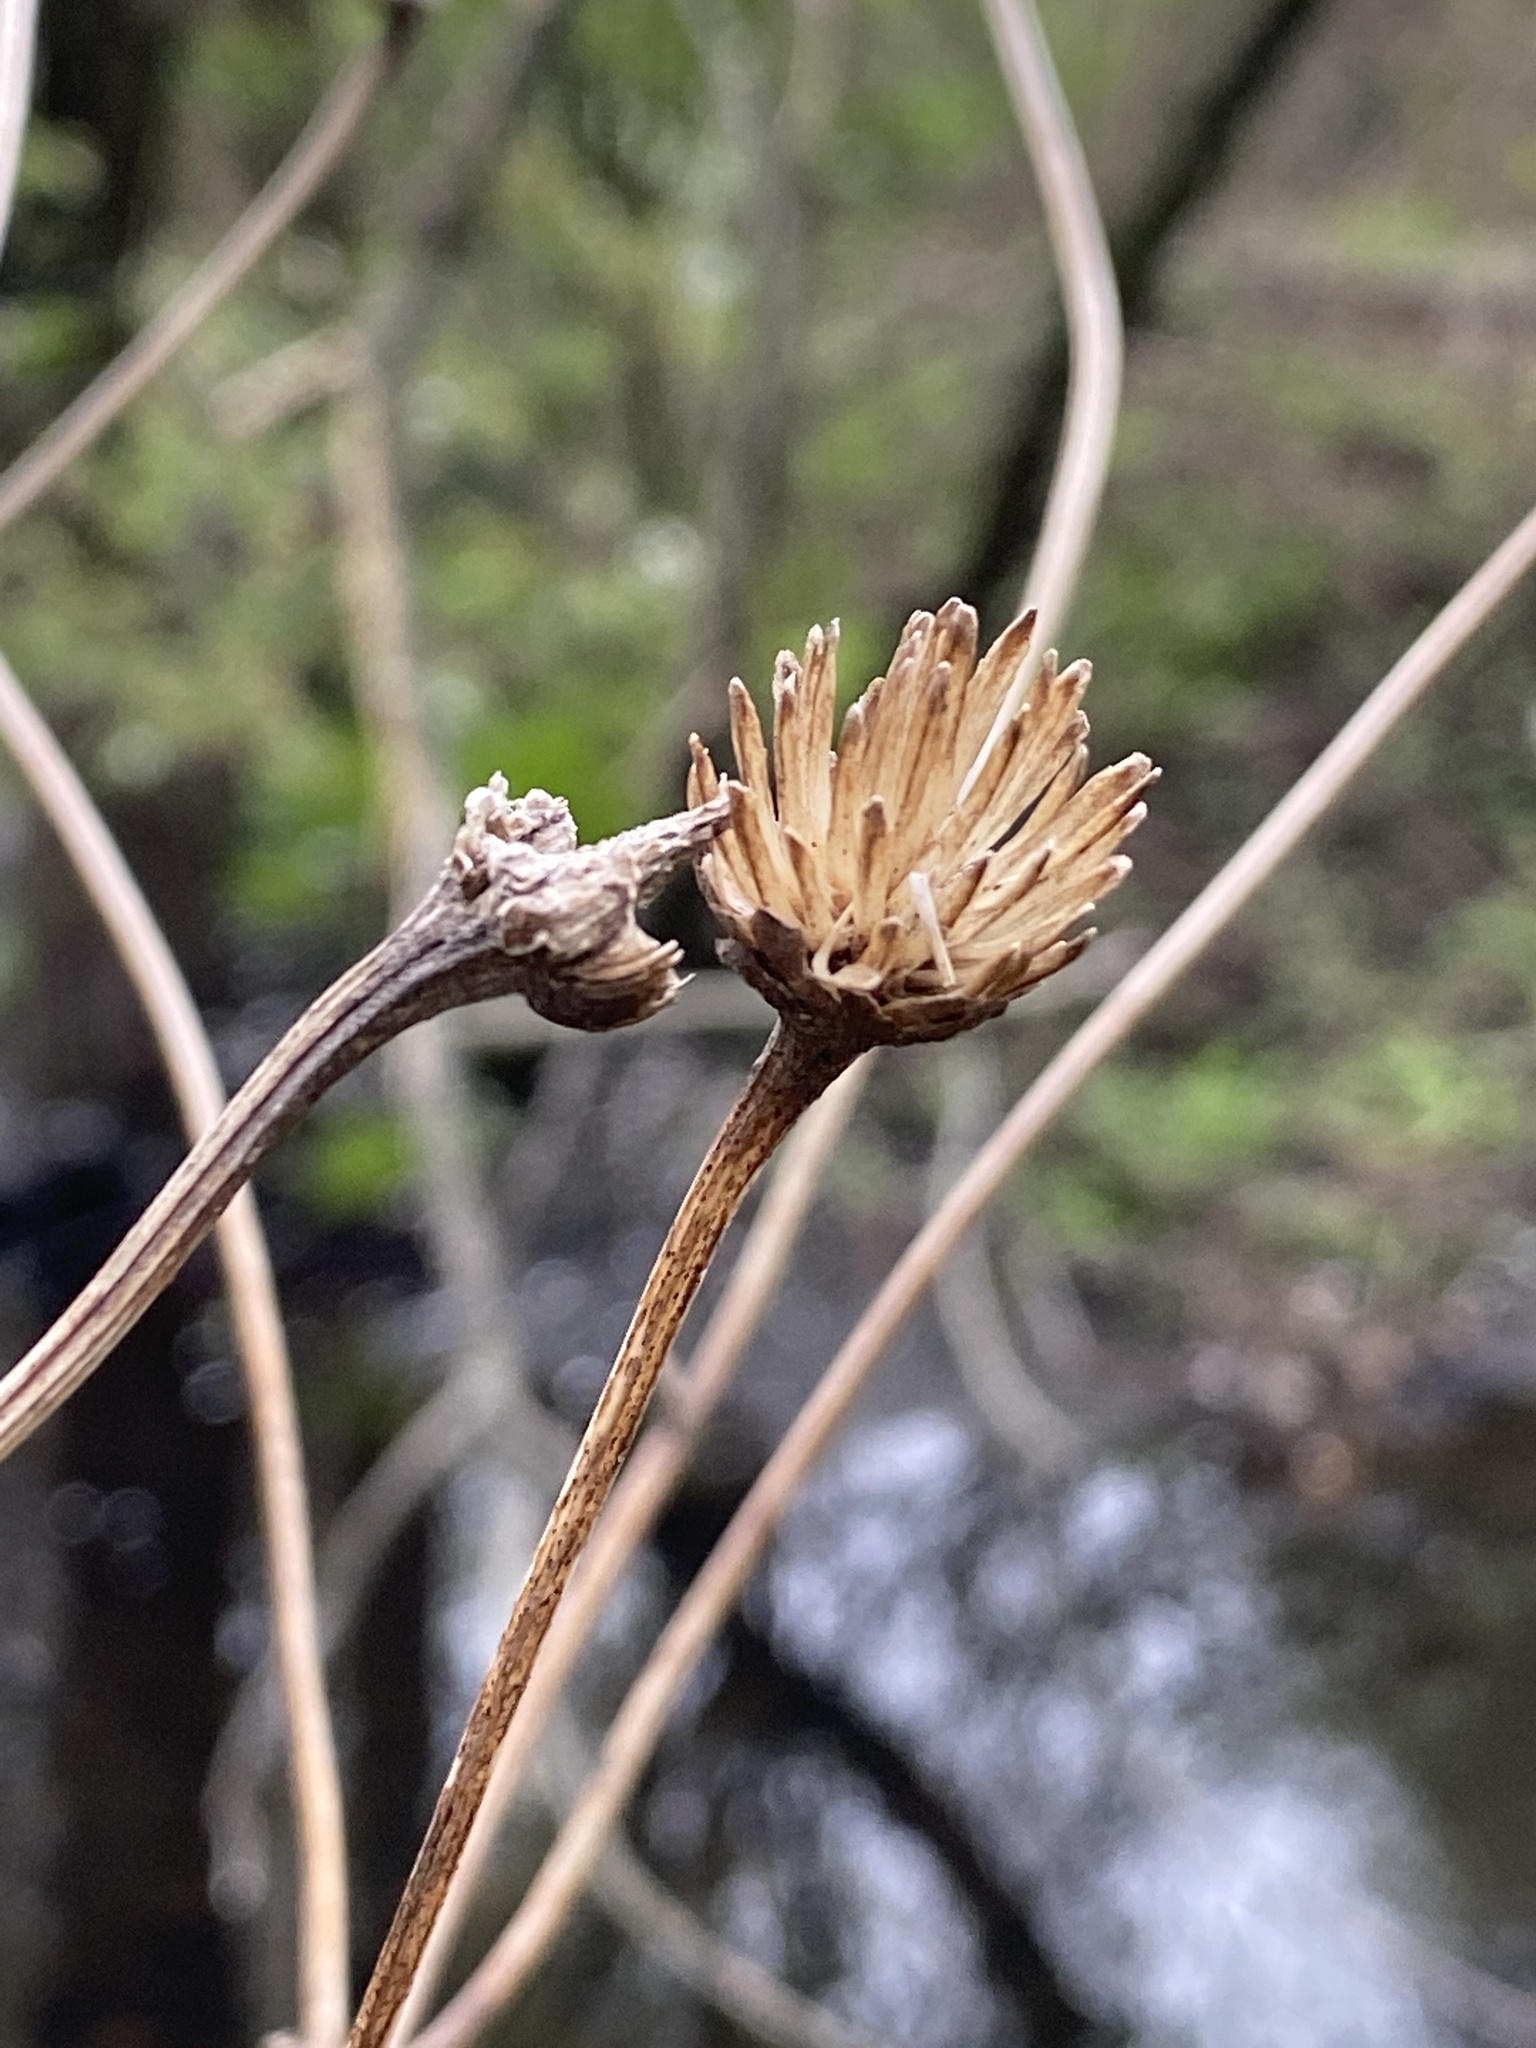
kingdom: Plantae
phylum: Tracheophyta
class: Magnoliopsida
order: Asterales
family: Asteraceae
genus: Heliopsis
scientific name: Heliopsis helianthoides
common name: False sunflower
